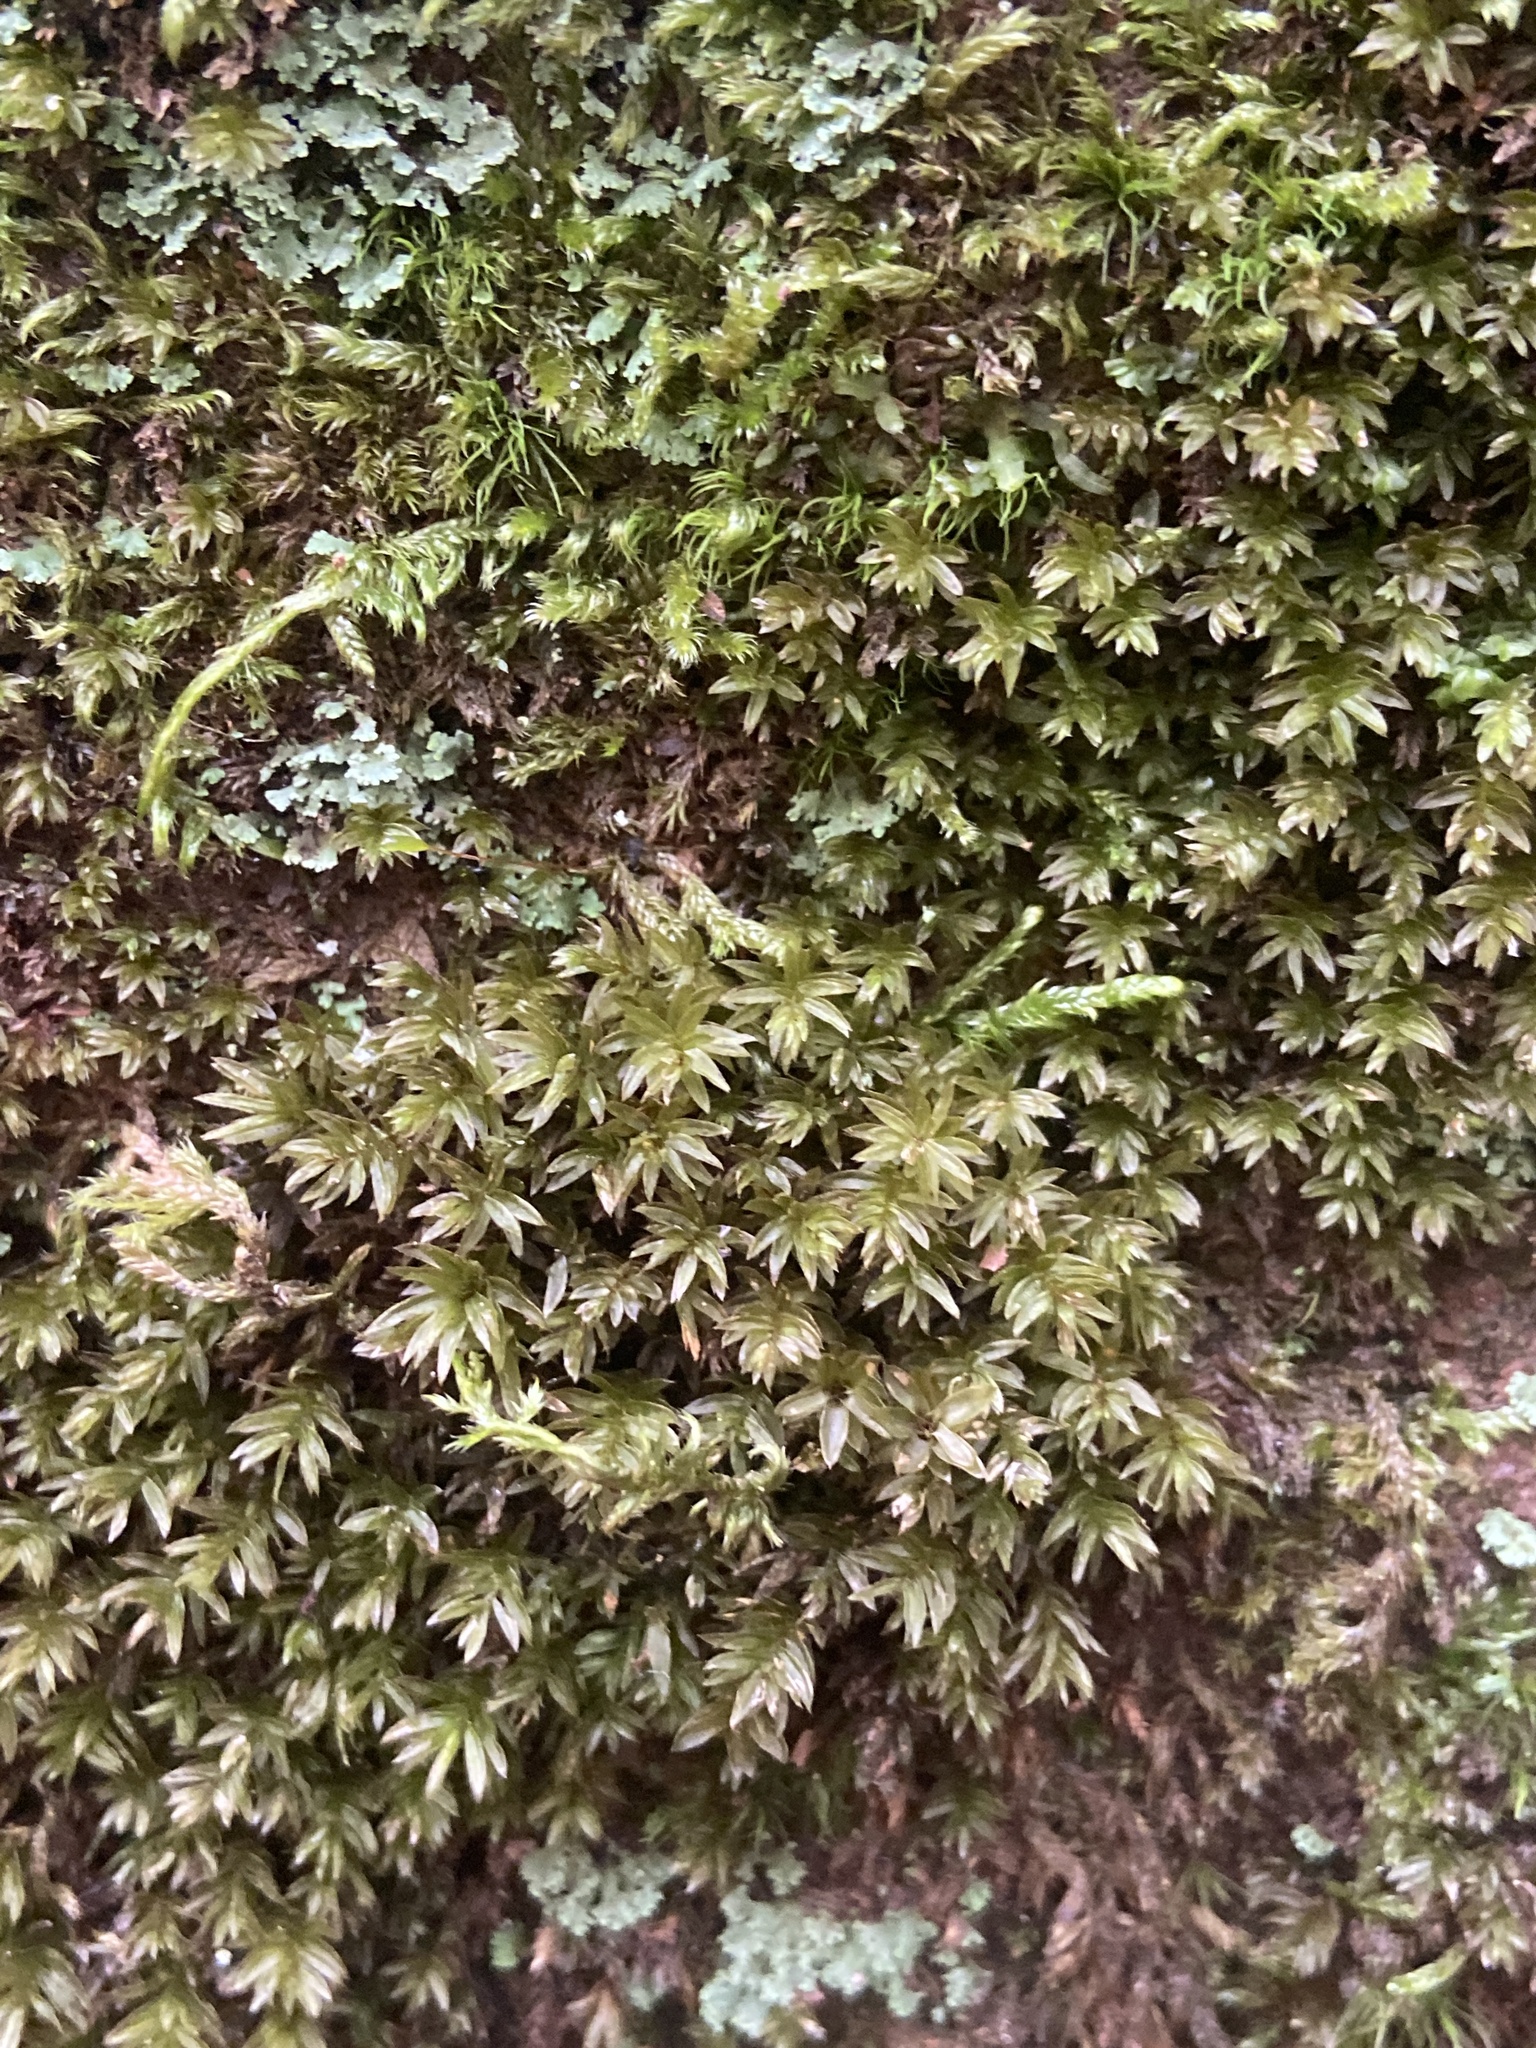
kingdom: Plantae
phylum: Bryophyta
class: Bryopsida
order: Bryales
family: Mniaceae
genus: Mnium
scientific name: Mnium hornum
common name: Swan's-neck leafy moss
